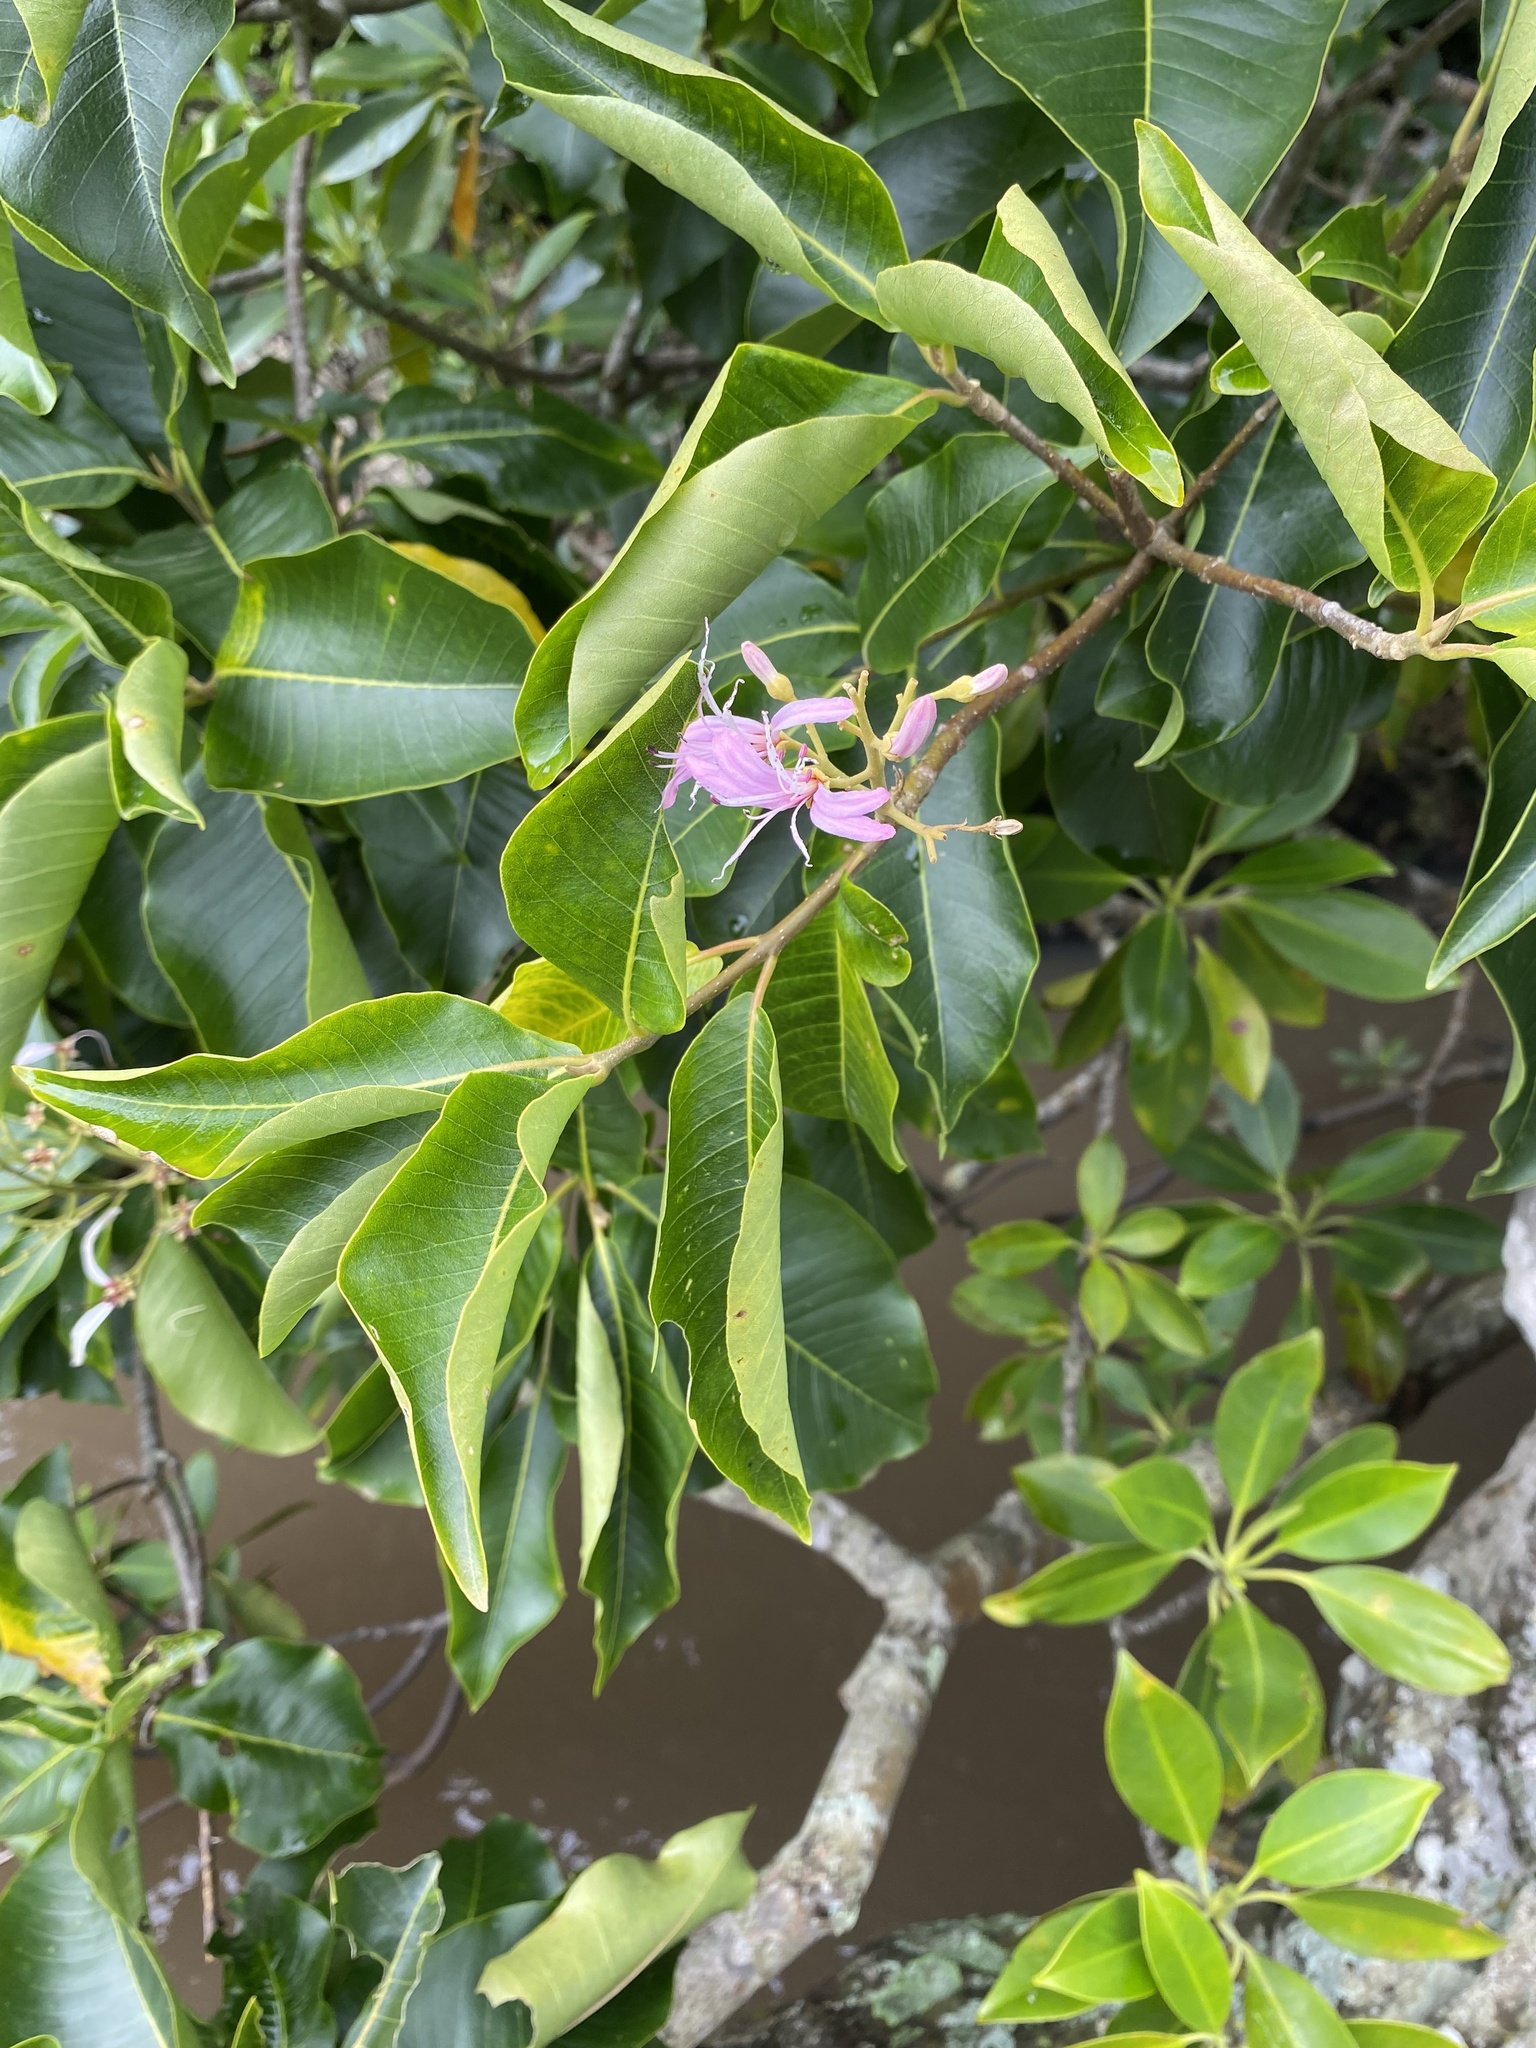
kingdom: Plantae
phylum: Tracheophyta
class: Magnoliopsida
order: Sapindales
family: Rutaceae
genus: Calodendrum
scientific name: Calodendrum capense
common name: Cape chestnut
